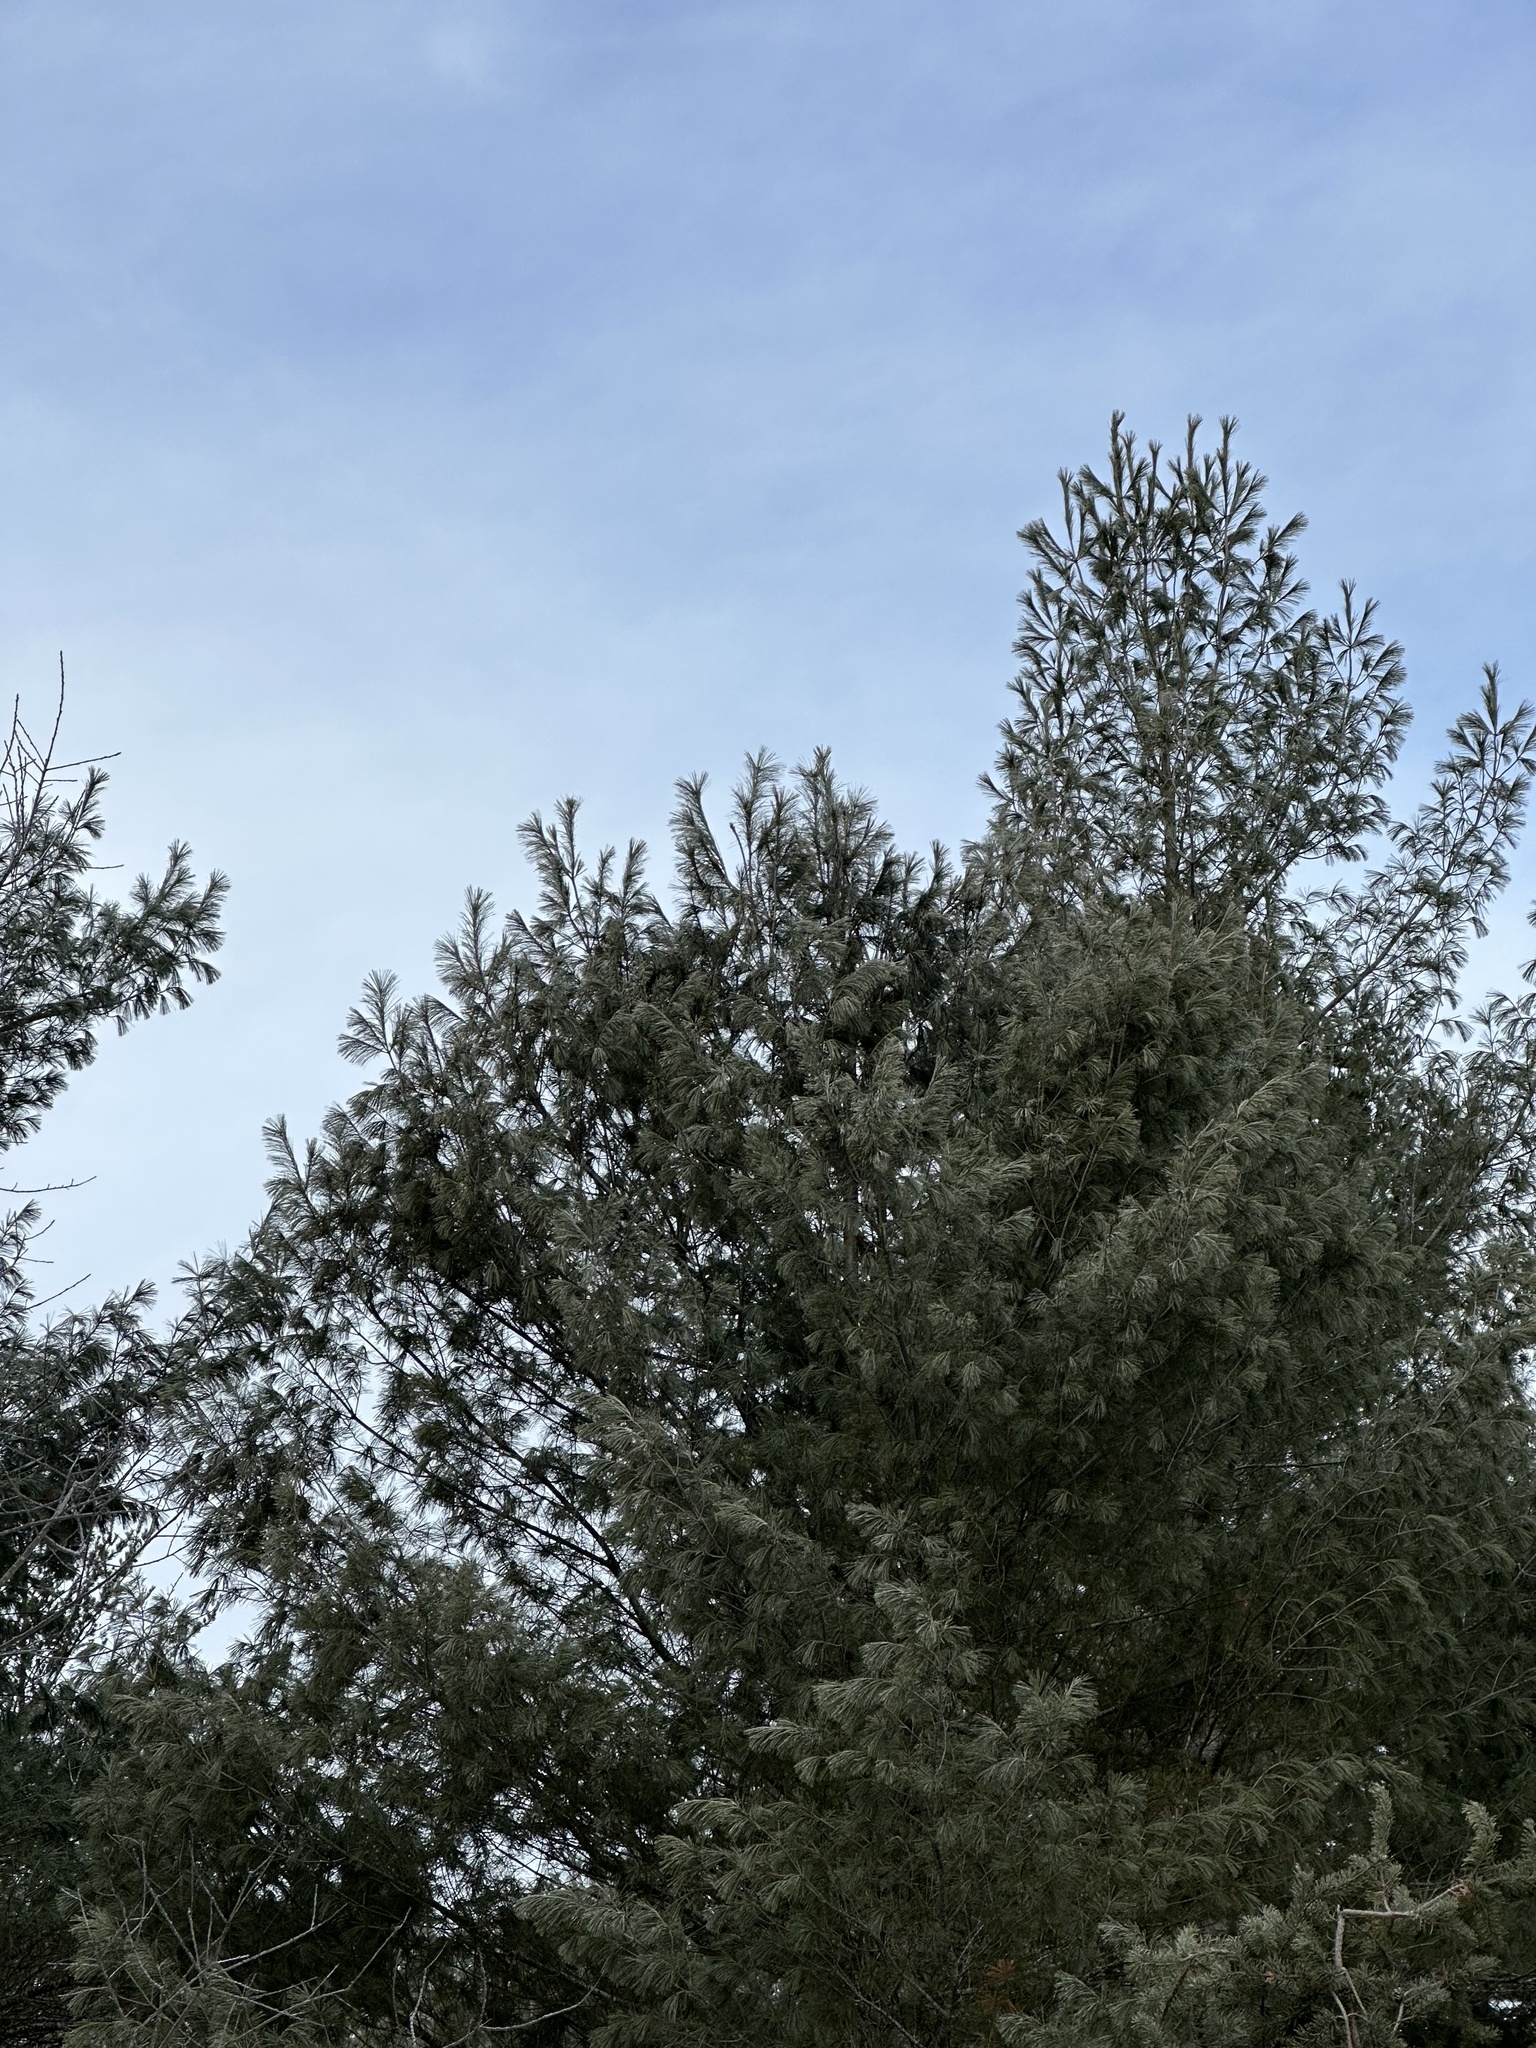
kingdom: Plantae
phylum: Tracheophyta
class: Pinopsida
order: Pinales
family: Pinaceae
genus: Pinus
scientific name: Pinus strobus
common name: Weymouth pine
